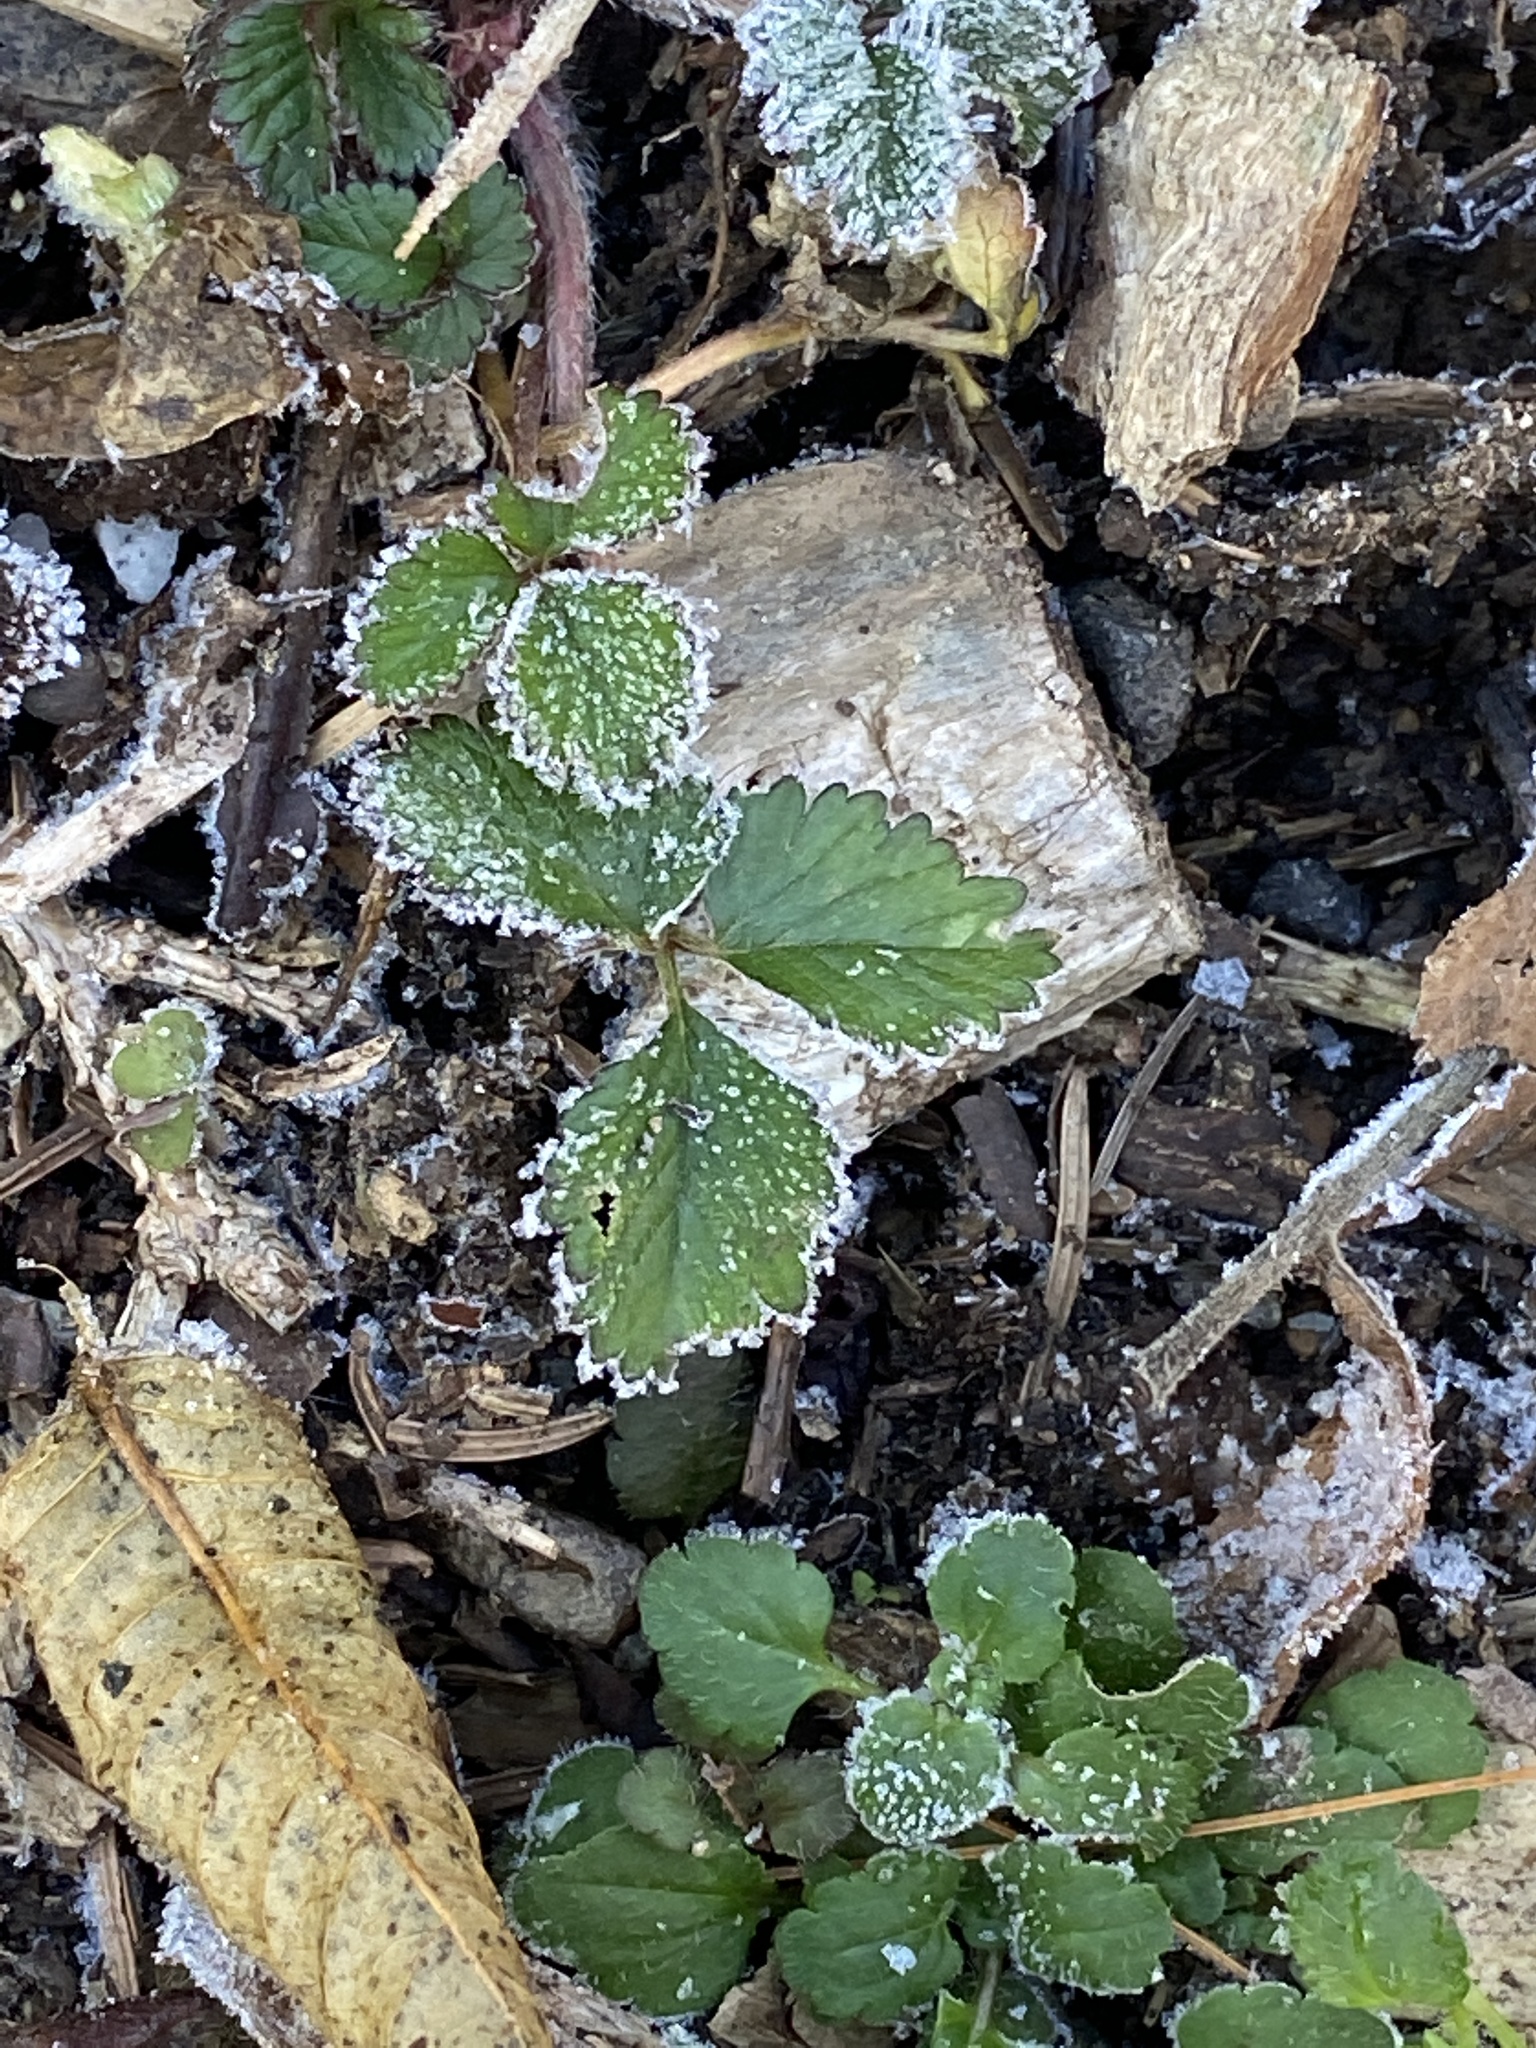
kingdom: Plantae
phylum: Tracheophyta
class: Magnoliopsida
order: Rosales
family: Rosaceae
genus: Potentilla
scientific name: Potentilla indica
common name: Yellow-flowered strawberry
